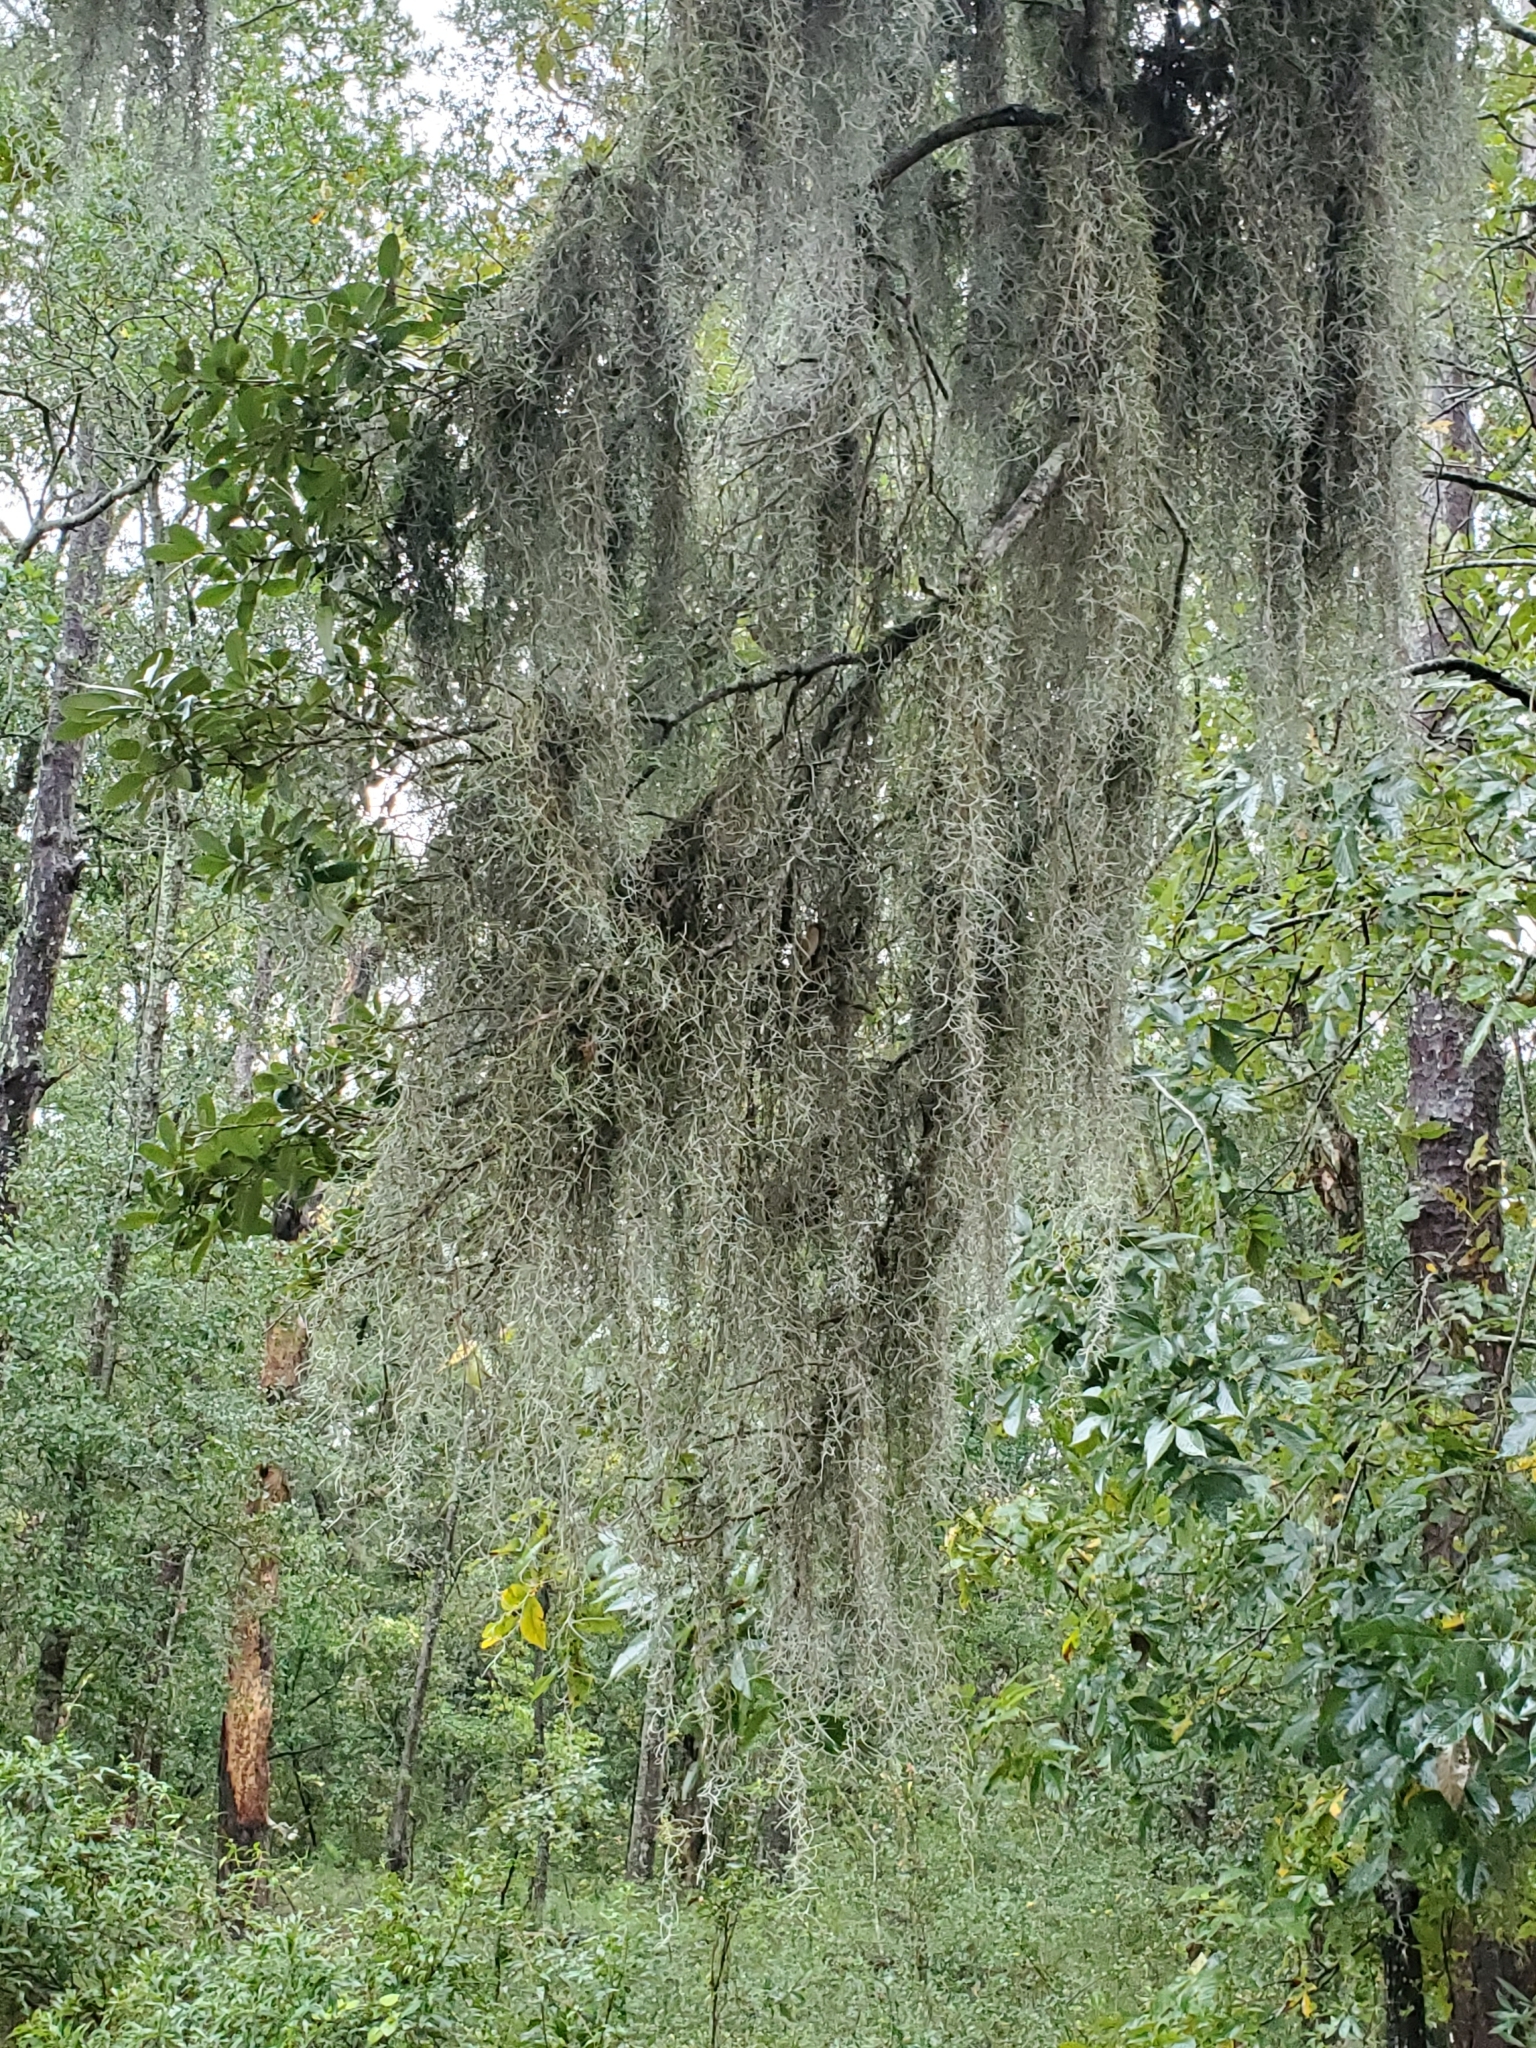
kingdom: Plantae
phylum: Tracheophyta
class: Liliopsida
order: Poales
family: Bromeliaceae
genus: Tillandsia
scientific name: Tillandsia usneoides
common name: Spanish moss
